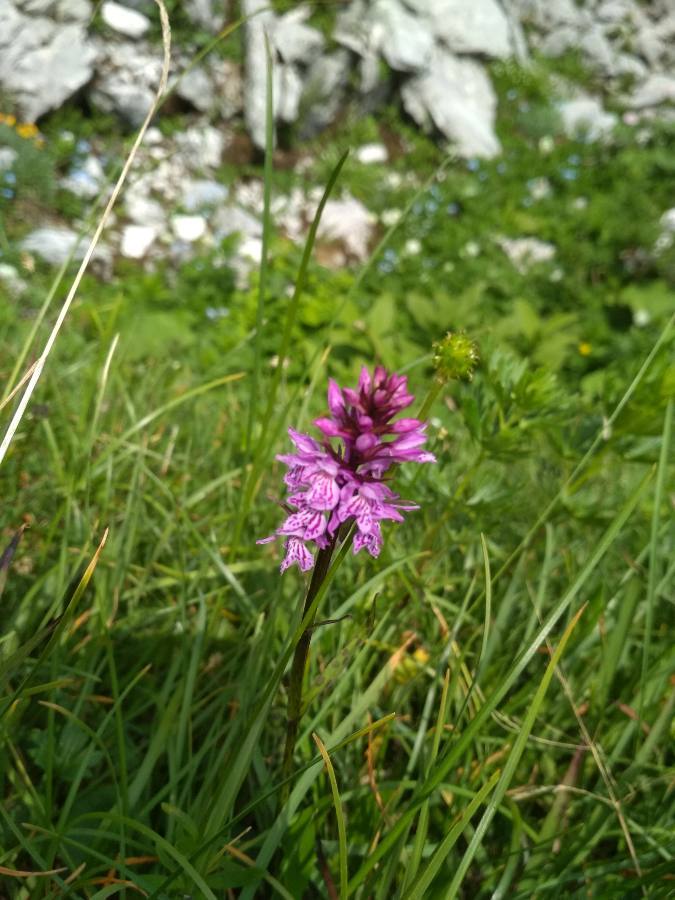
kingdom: Plantae
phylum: Tracheophyta
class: Liliopsida
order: Asparagales
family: Orchidaceae
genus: Dactylorhiza
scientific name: Dactylorhiza maculata
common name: Heath spotted-orchid
